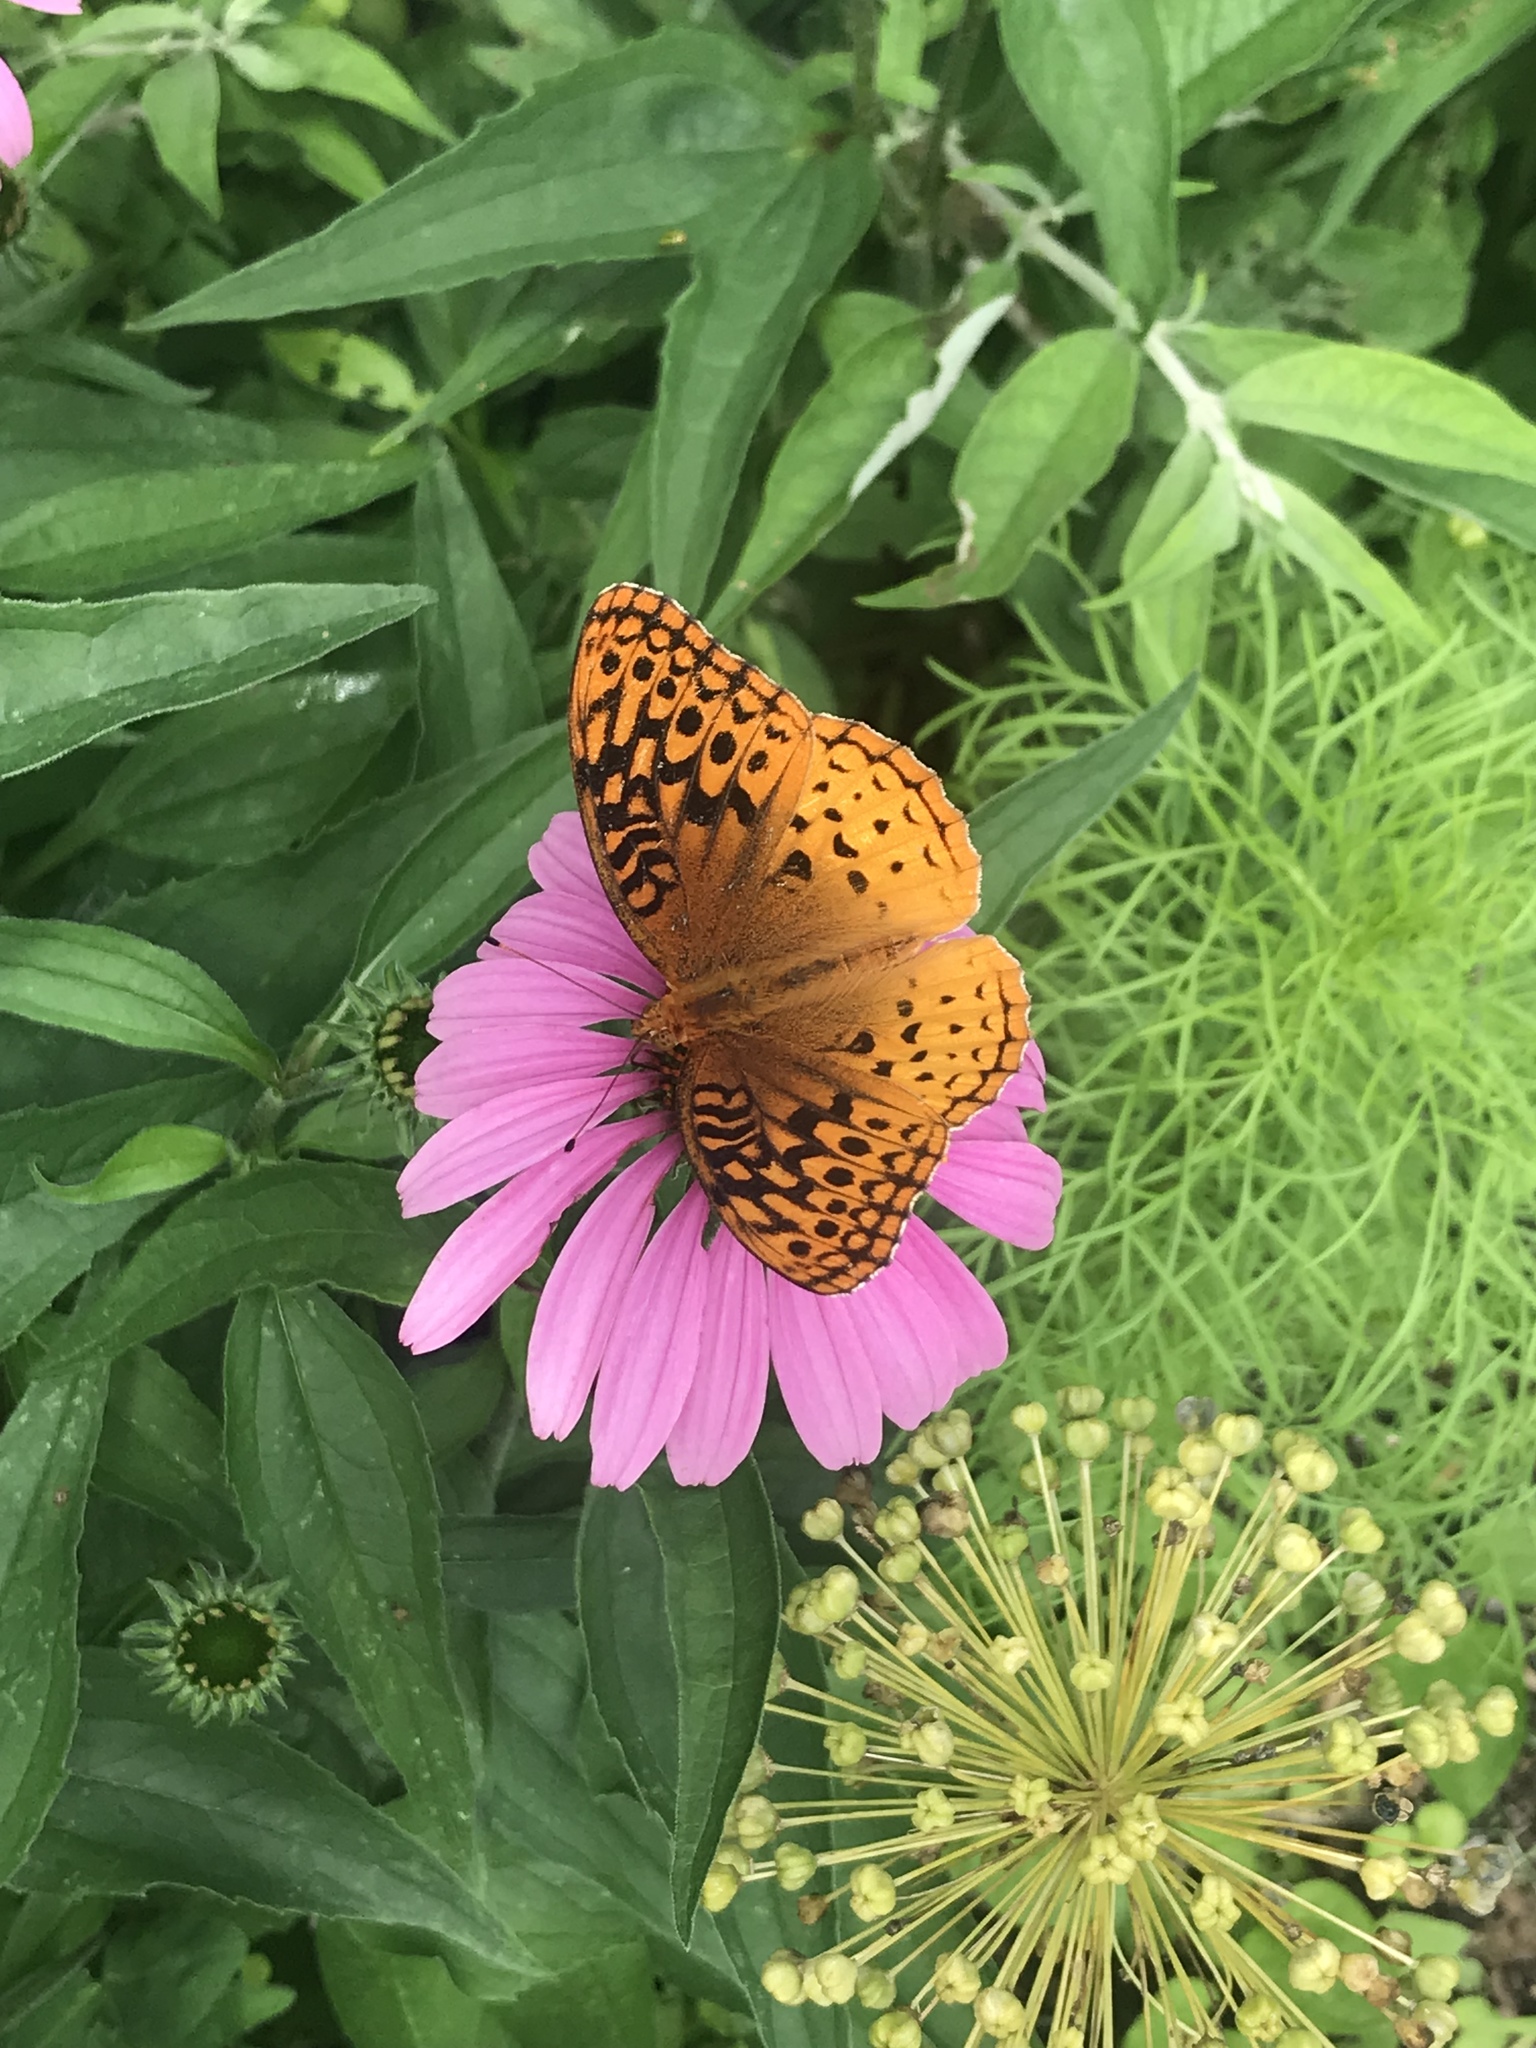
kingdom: Animalia
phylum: Arthropoda
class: Insecta
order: Lepidoptera
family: Nymphalidae
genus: Speyeria
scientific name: Speyeria cybele
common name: Great spangled fritillary
